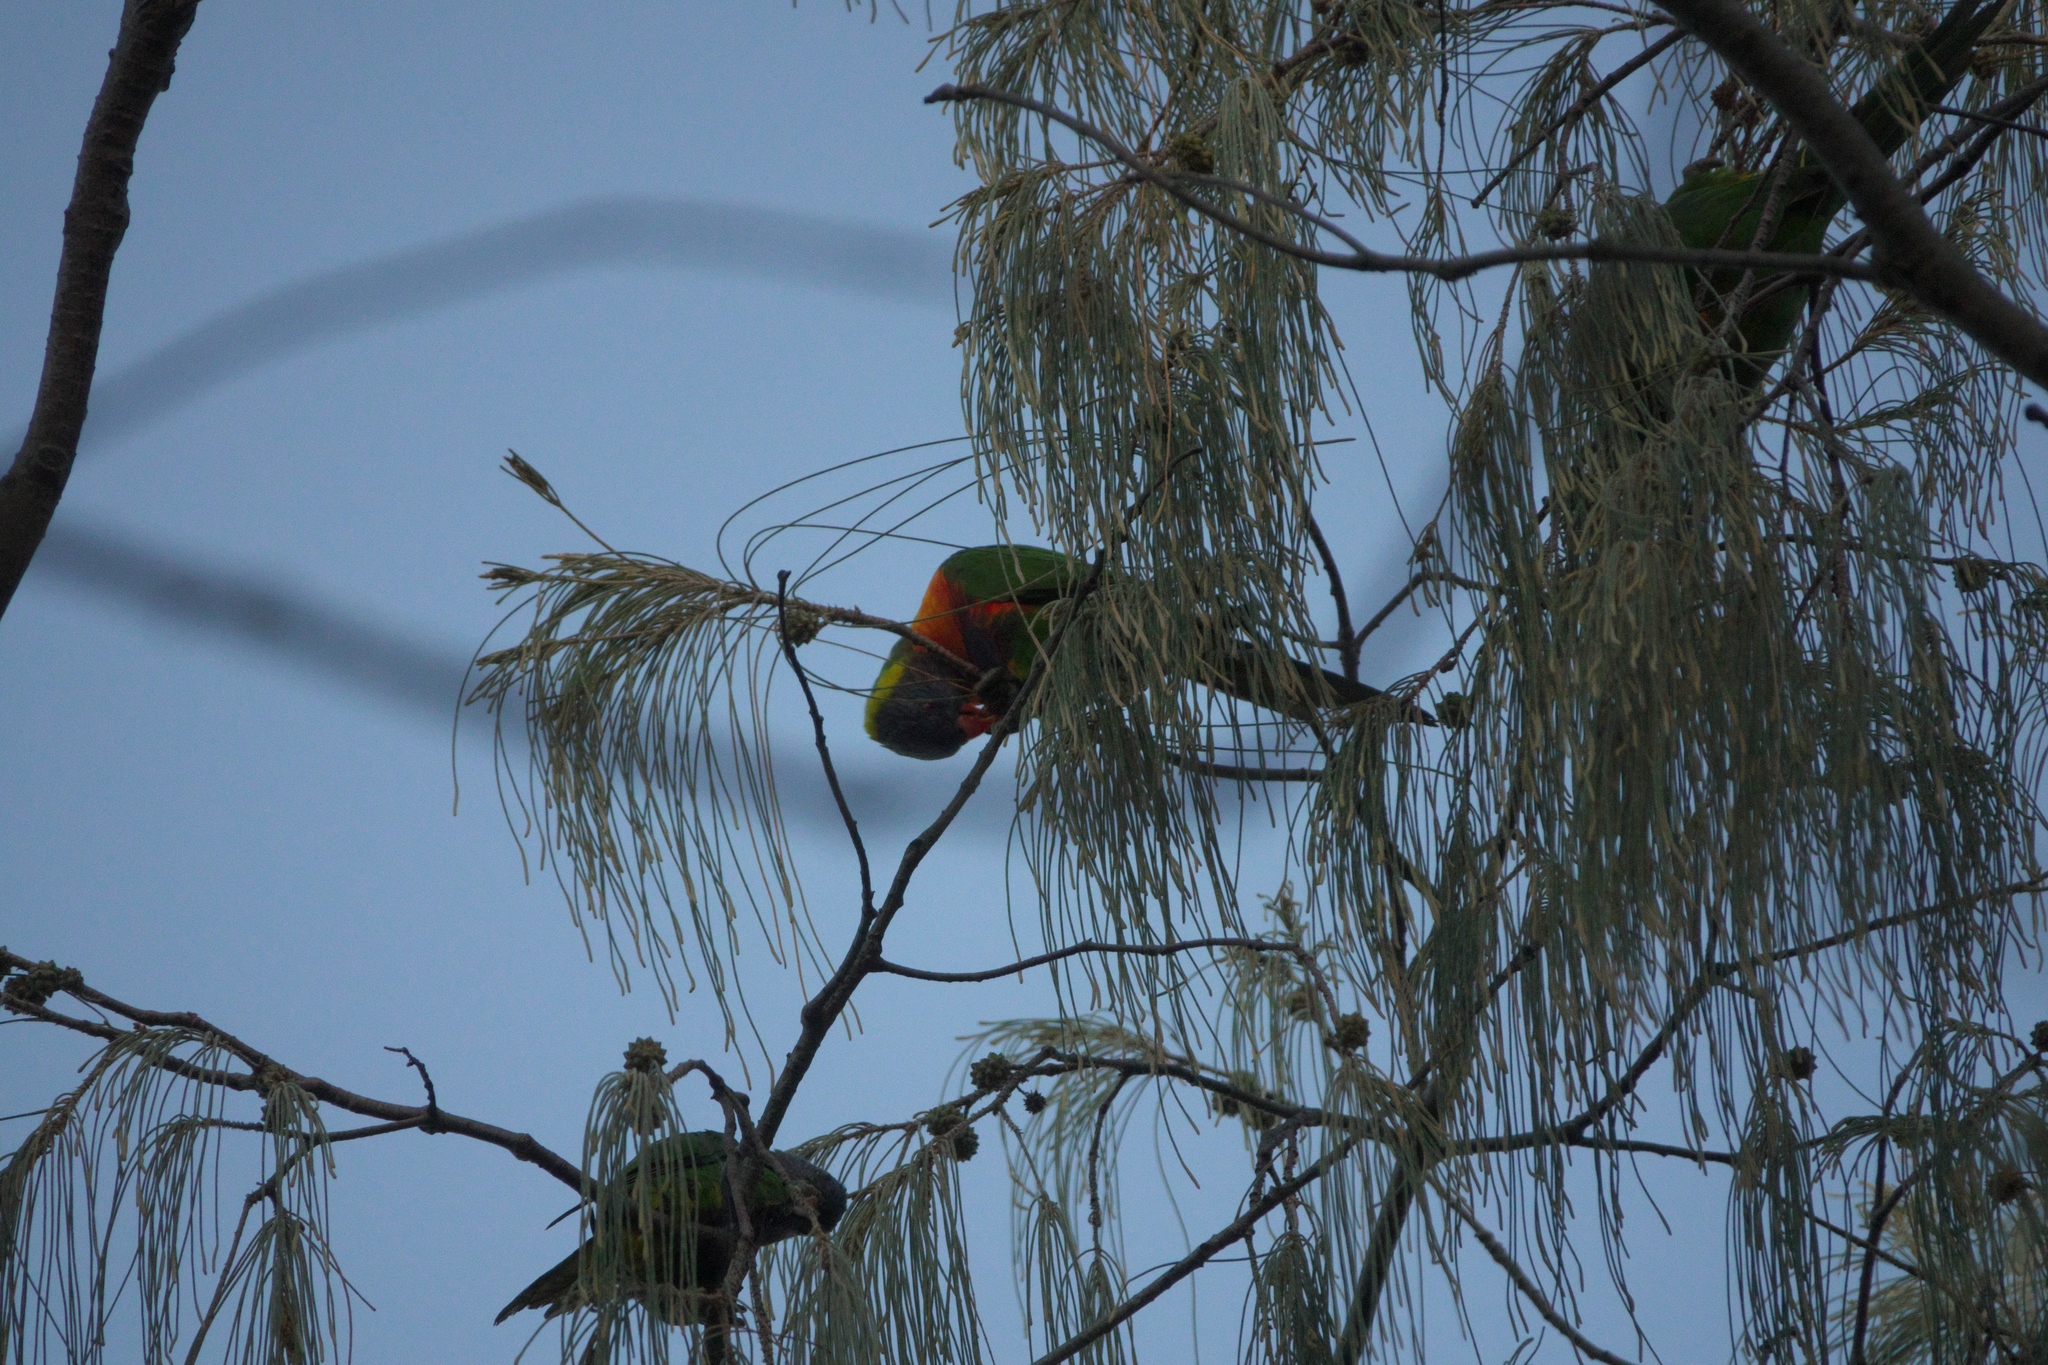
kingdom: Plantae
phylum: Tracheophyta
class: Magnoliopsida
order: Fagales
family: Casuarinaceae
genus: Casuarina
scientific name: Casuarina equisetifolia
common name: Beach sheoak
